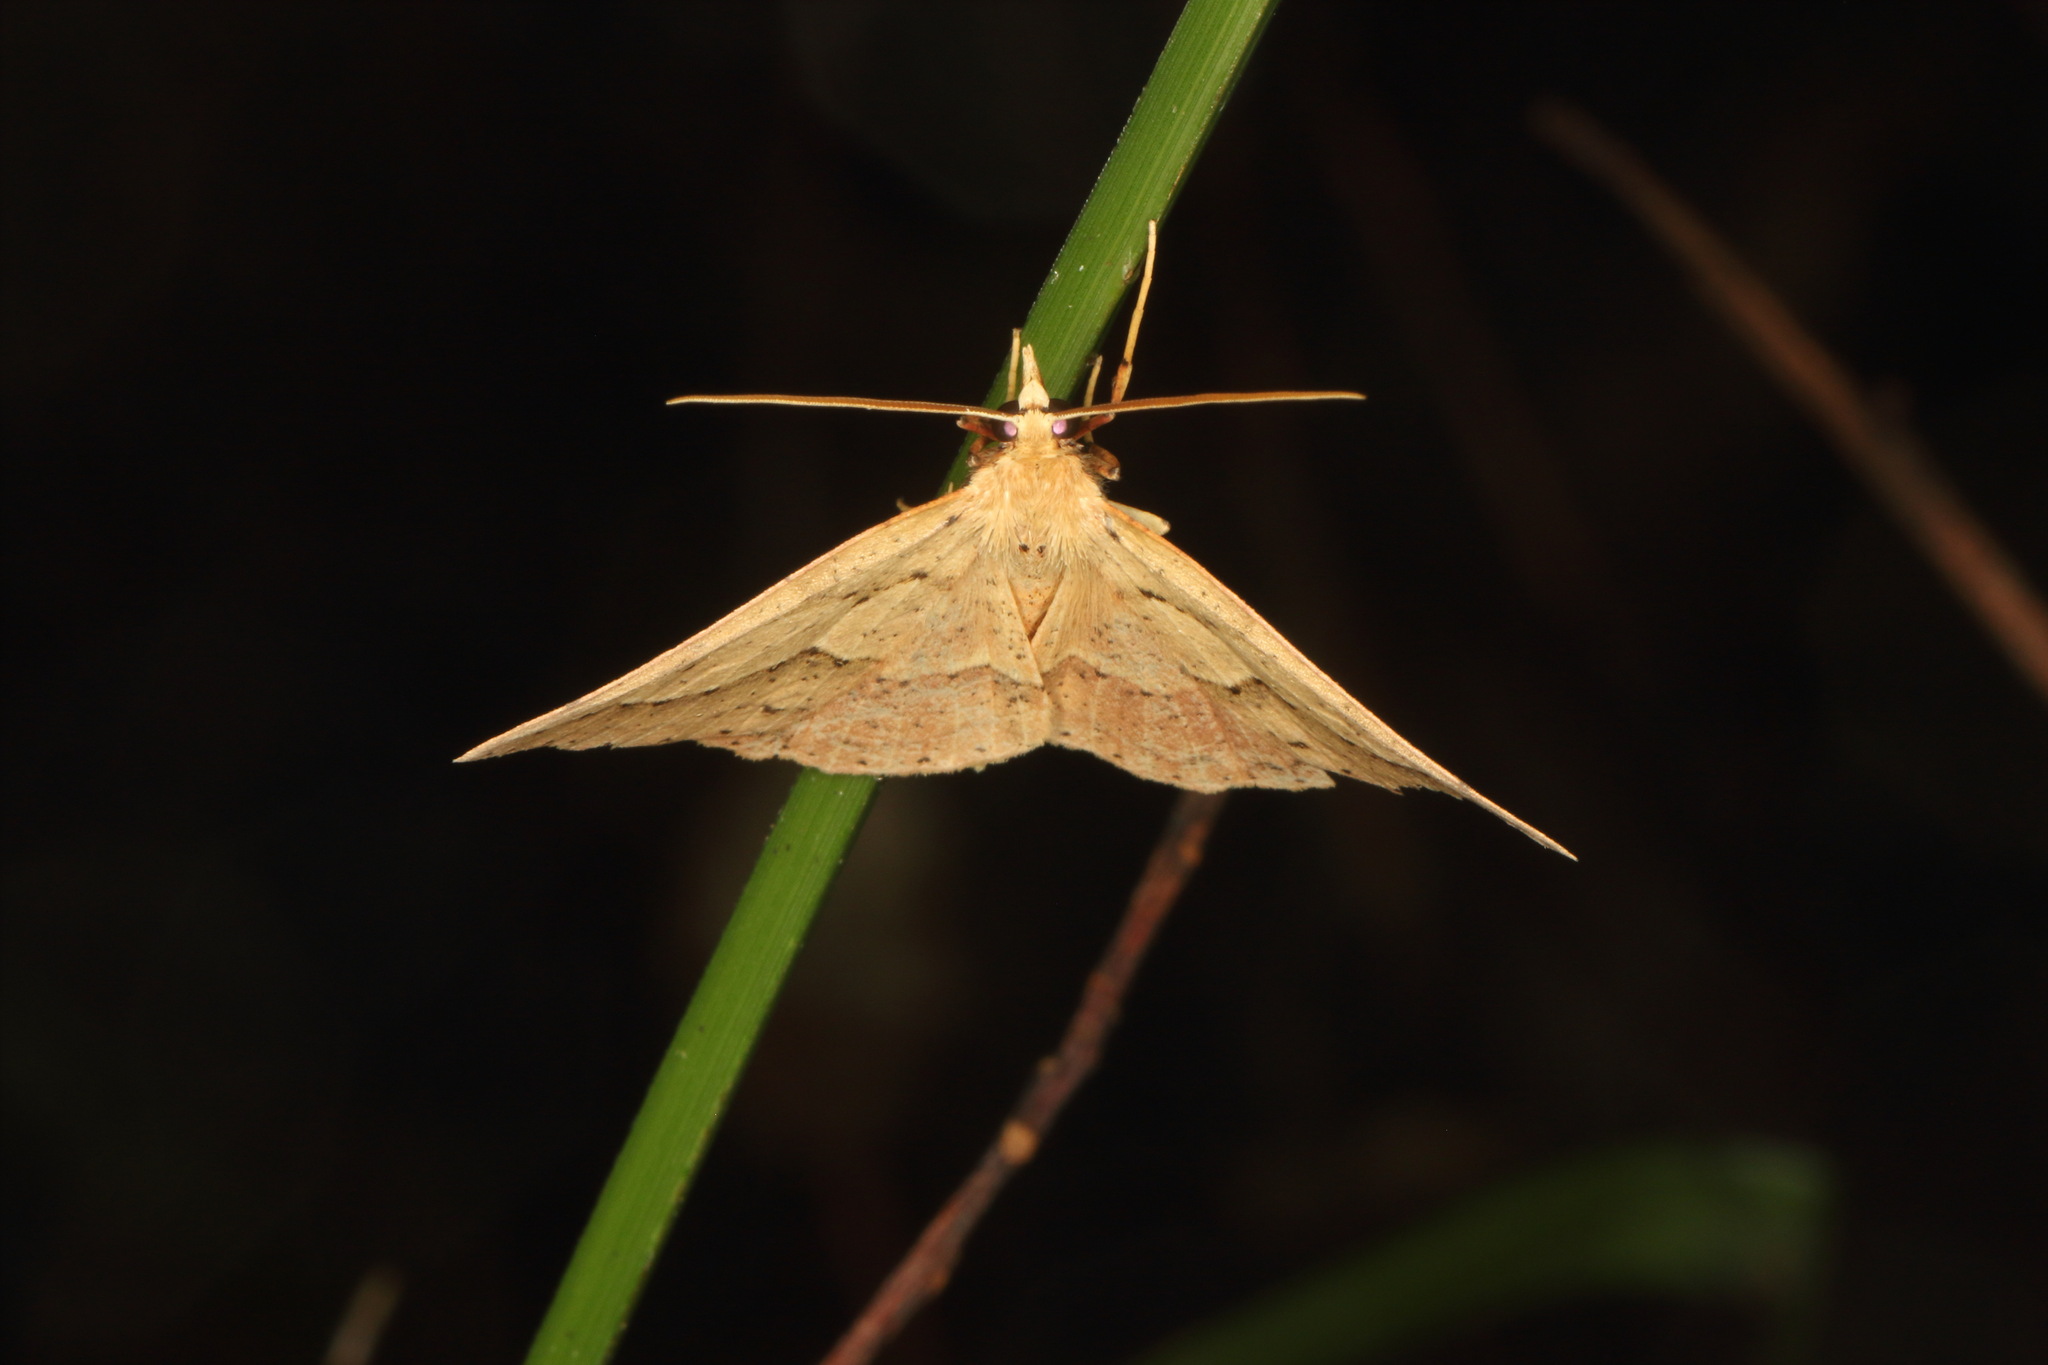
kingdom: Animalia
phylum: Arthropoda
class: Insecta
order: Lepidoptera
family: Geometridae
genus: Ischalis
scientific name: Ischalis variabilis
